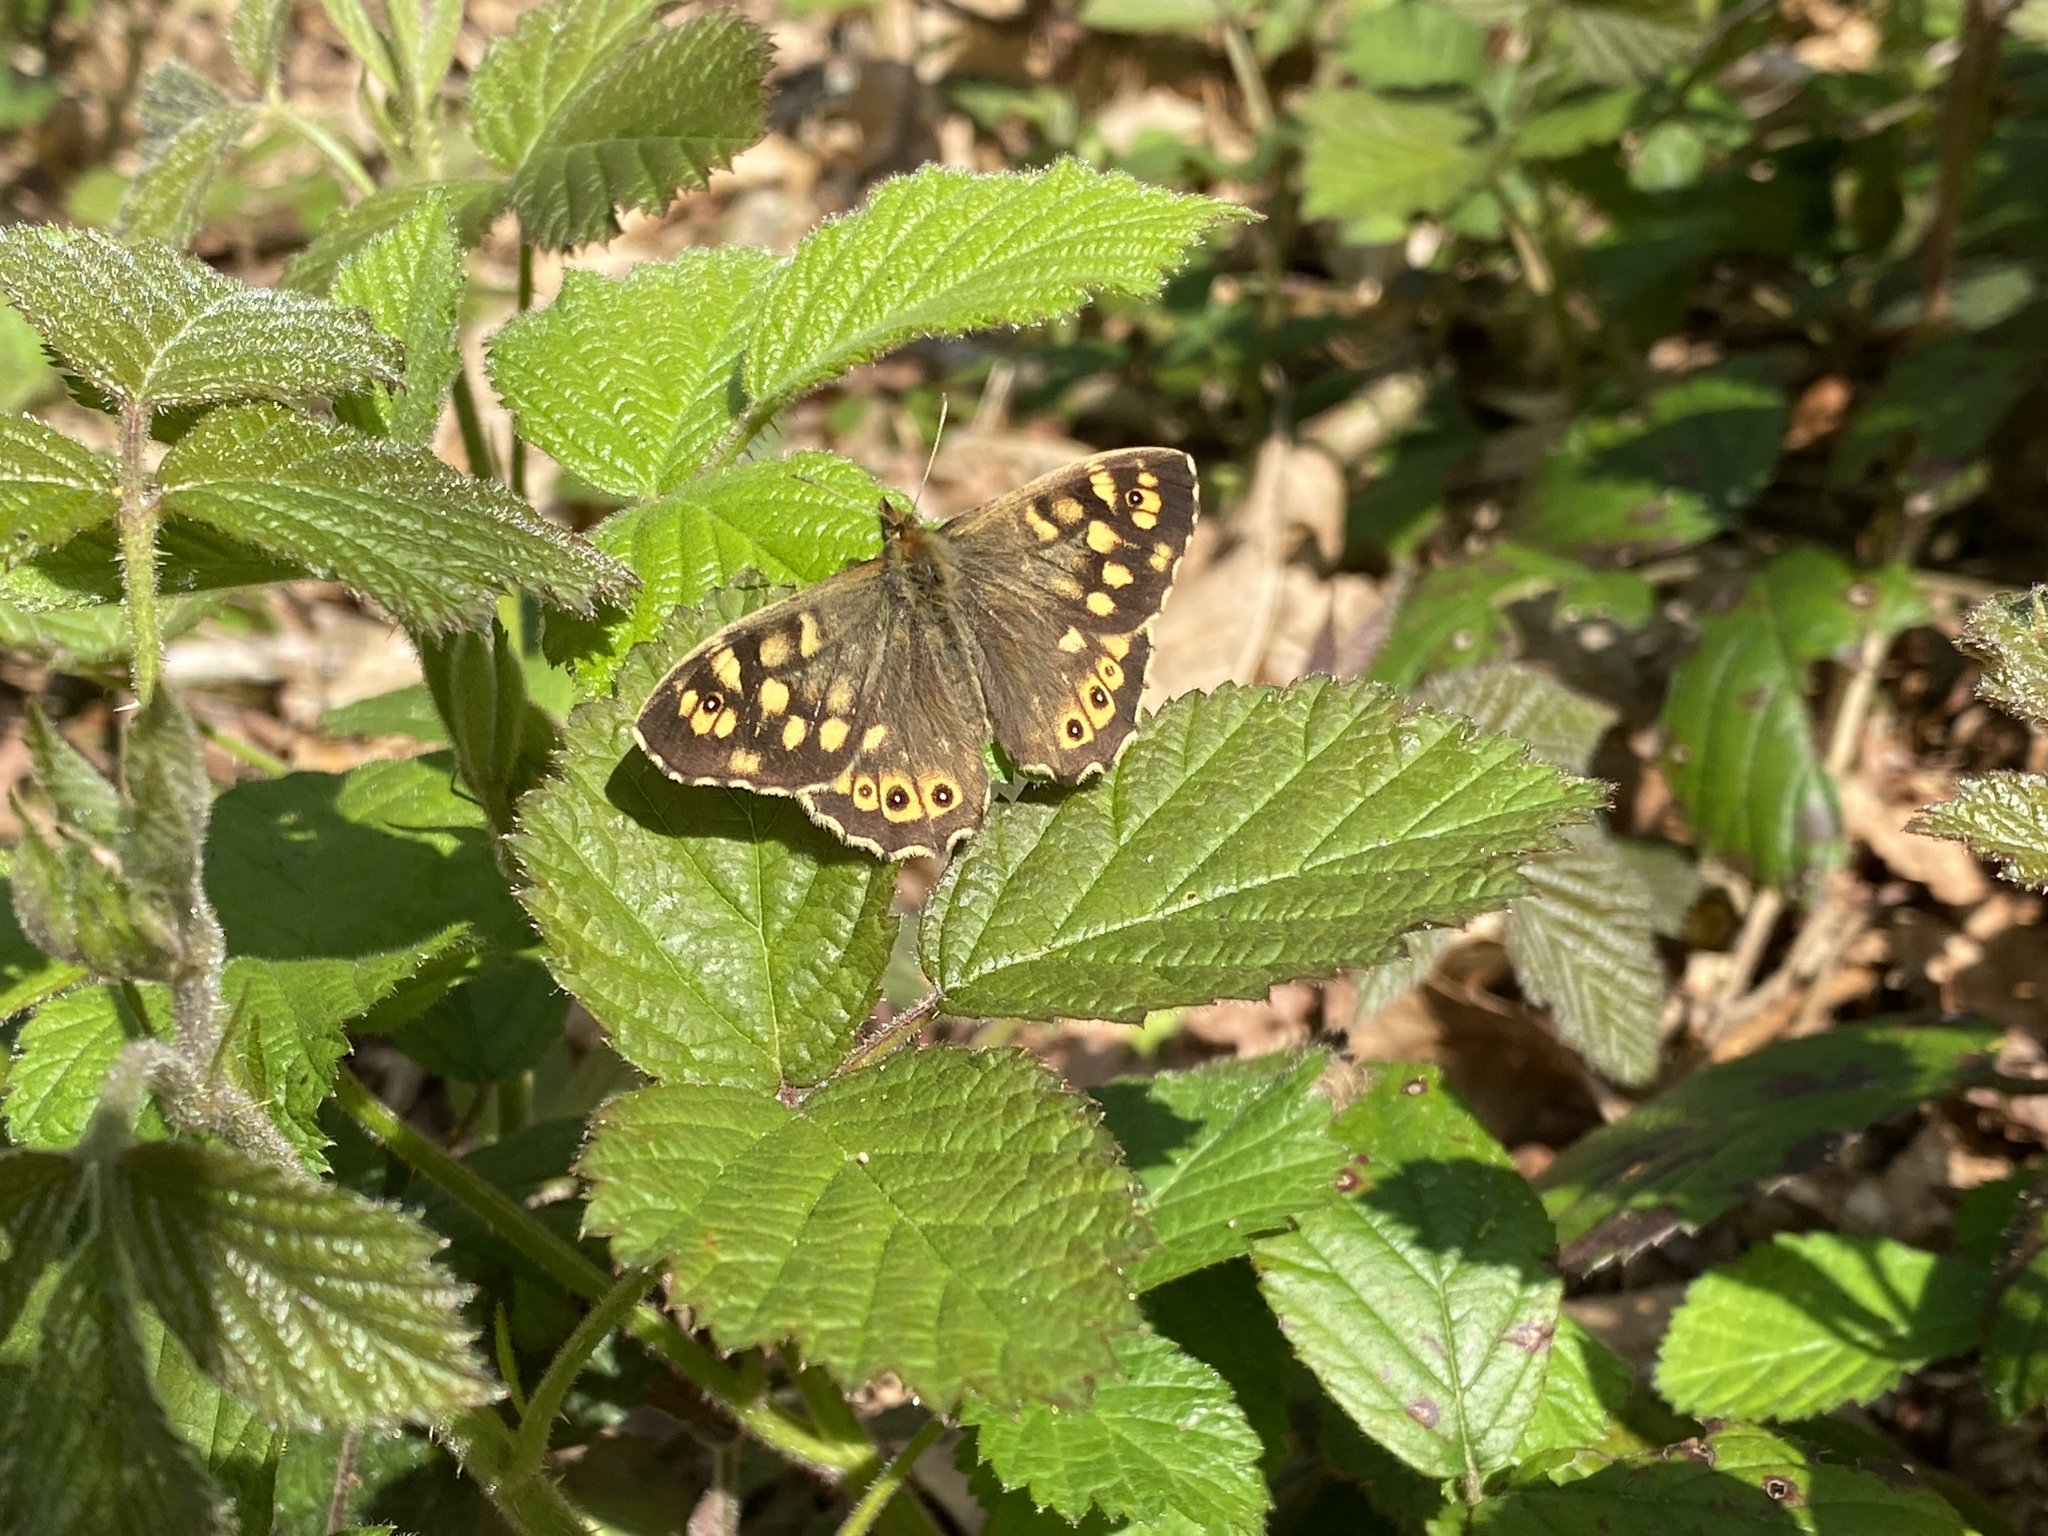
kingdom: Animalia
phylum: Arthropoda
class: Insecta
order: Lepidoptera
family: Nymphalidae
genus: Pararge
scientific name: Pararge aegeria
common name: Speckled wood
